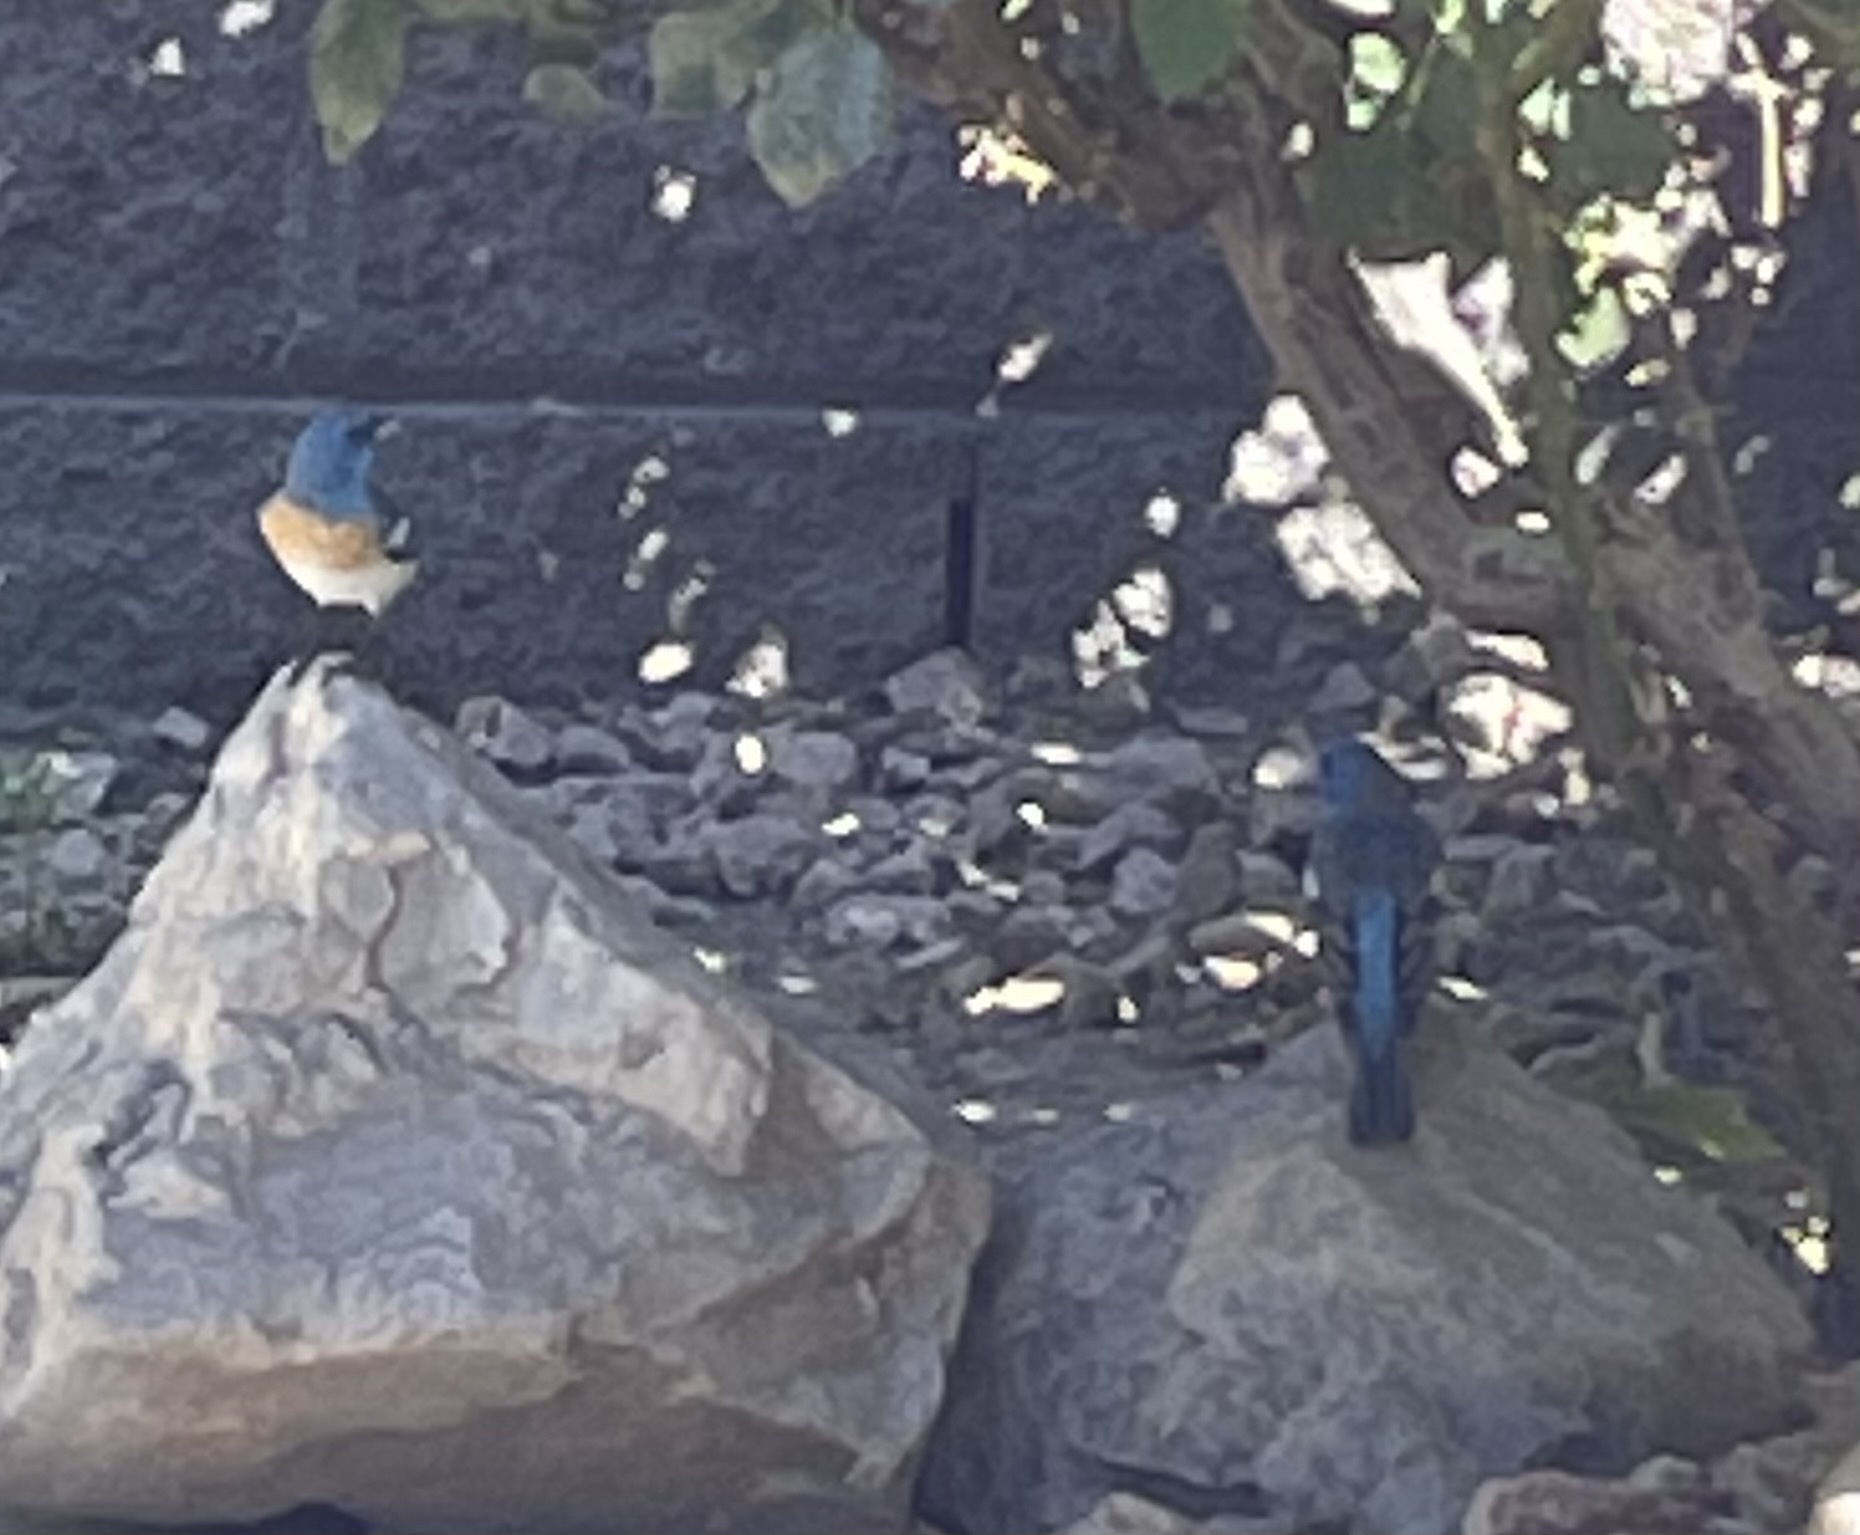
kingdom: Animalia
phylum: Chordata
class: Aves
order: Passeriformes
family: Cardinalidae
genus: Passerina
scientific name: Passerina amoena
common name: Lazuli bunting
